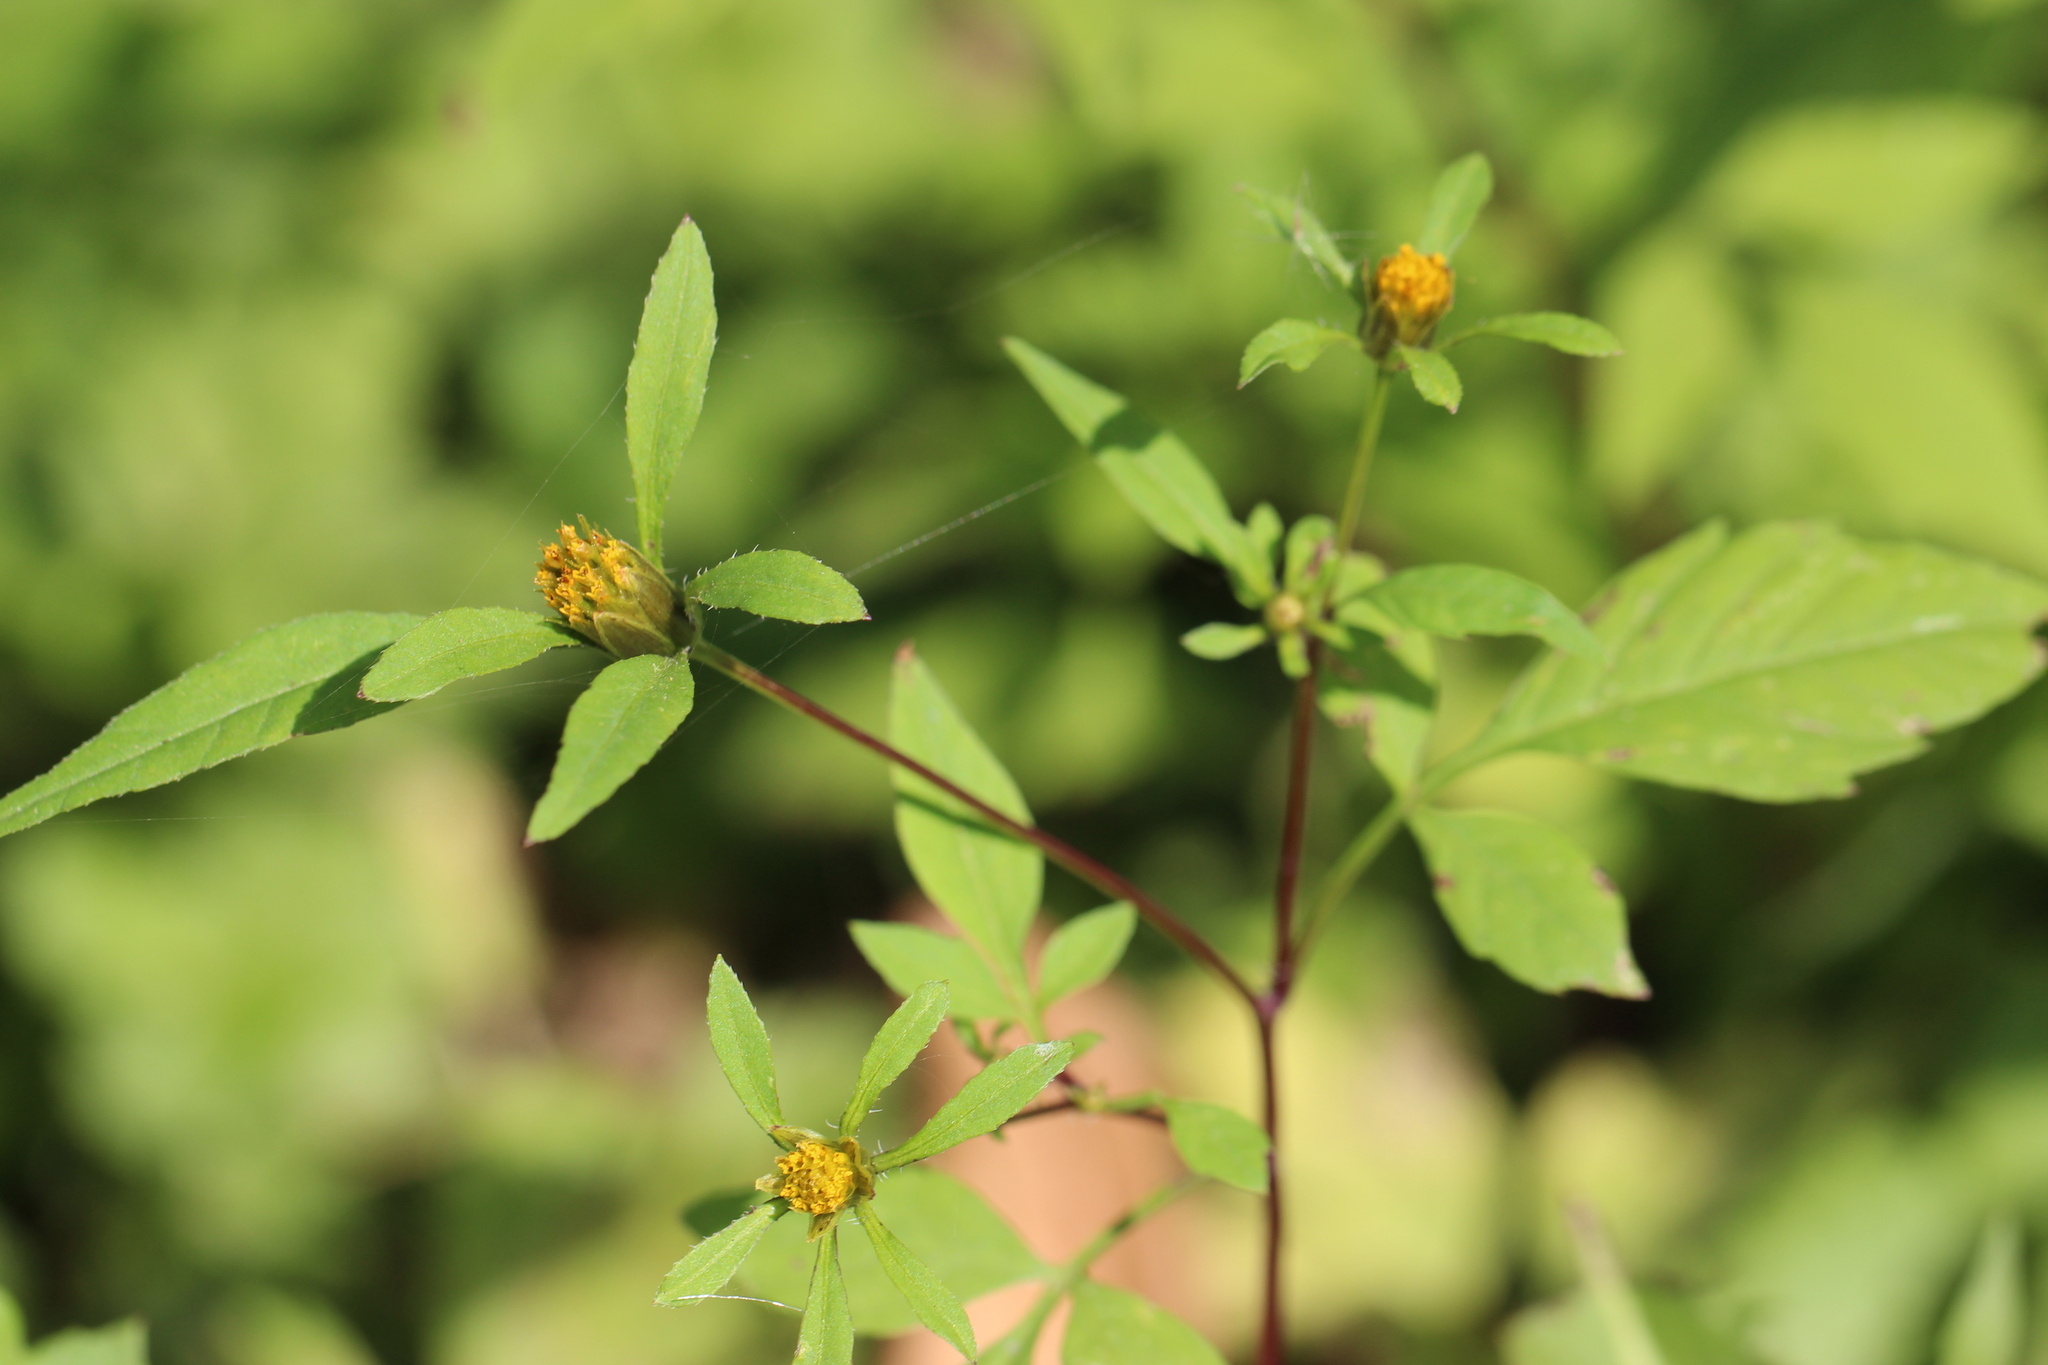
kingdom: Plantae
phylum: Tracheophyta
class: Magnoliopsida
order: Asterales
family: Asteraceae
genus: Bidens
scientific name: Bidens frondosa
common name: Beggarticks
